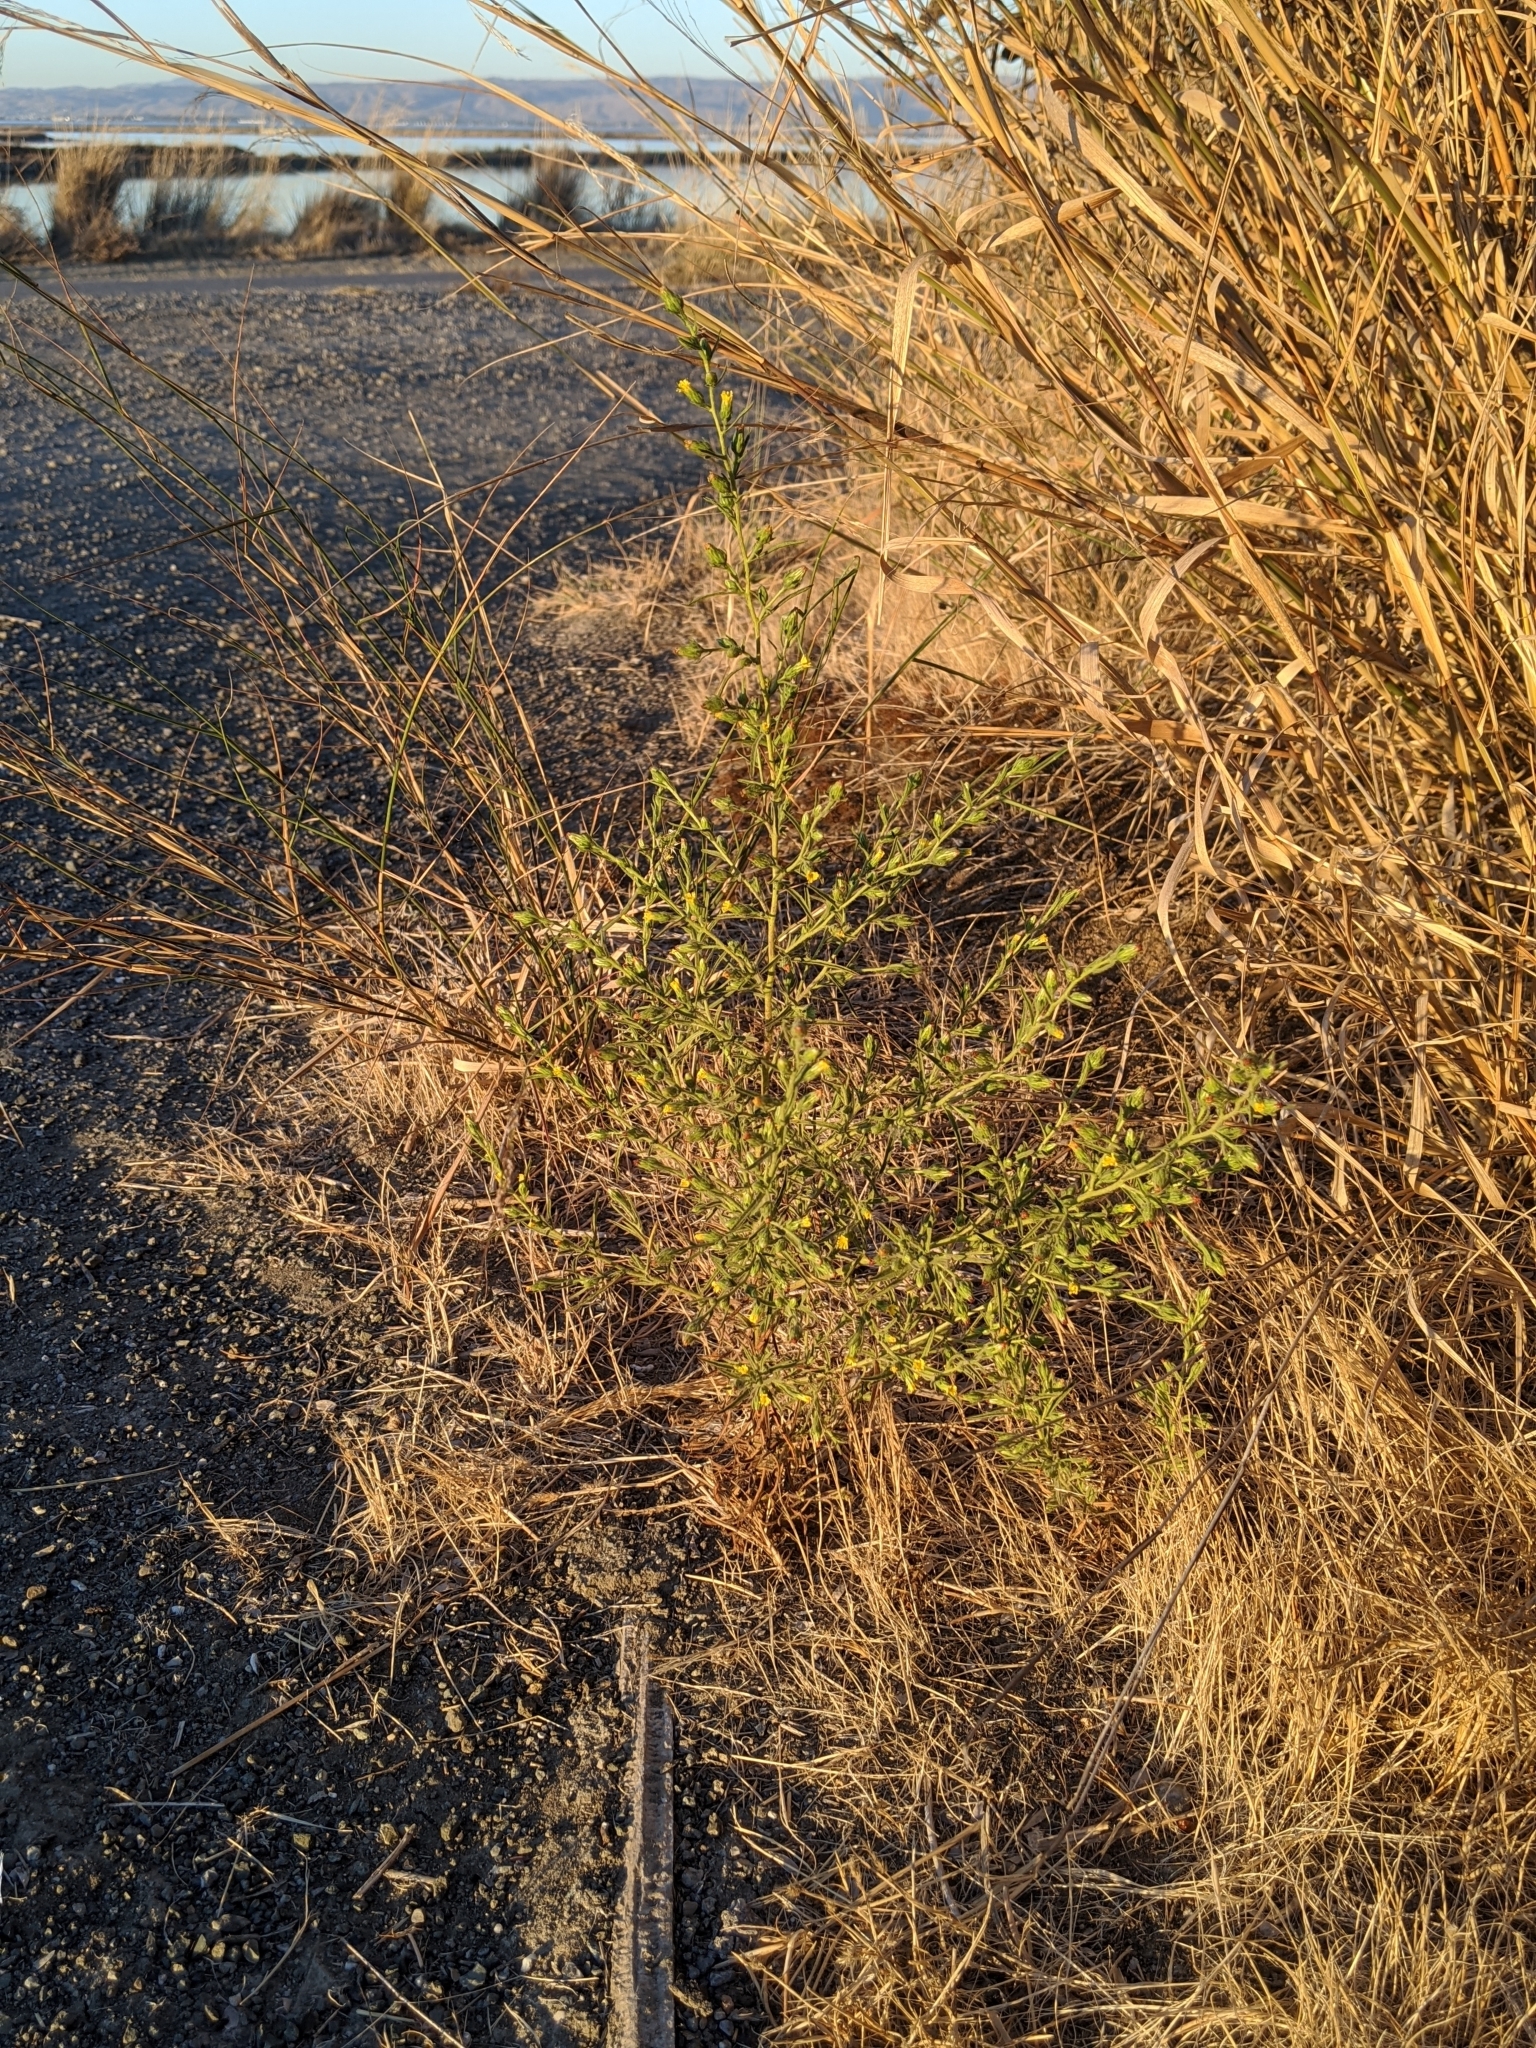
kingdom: Plantae
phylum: Tracheophyta
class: Magnoliopsida
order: Asterales
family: Asteraceae
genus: Dittrichia
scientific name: Dittrichia graveolens
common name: Stinking fleabane
